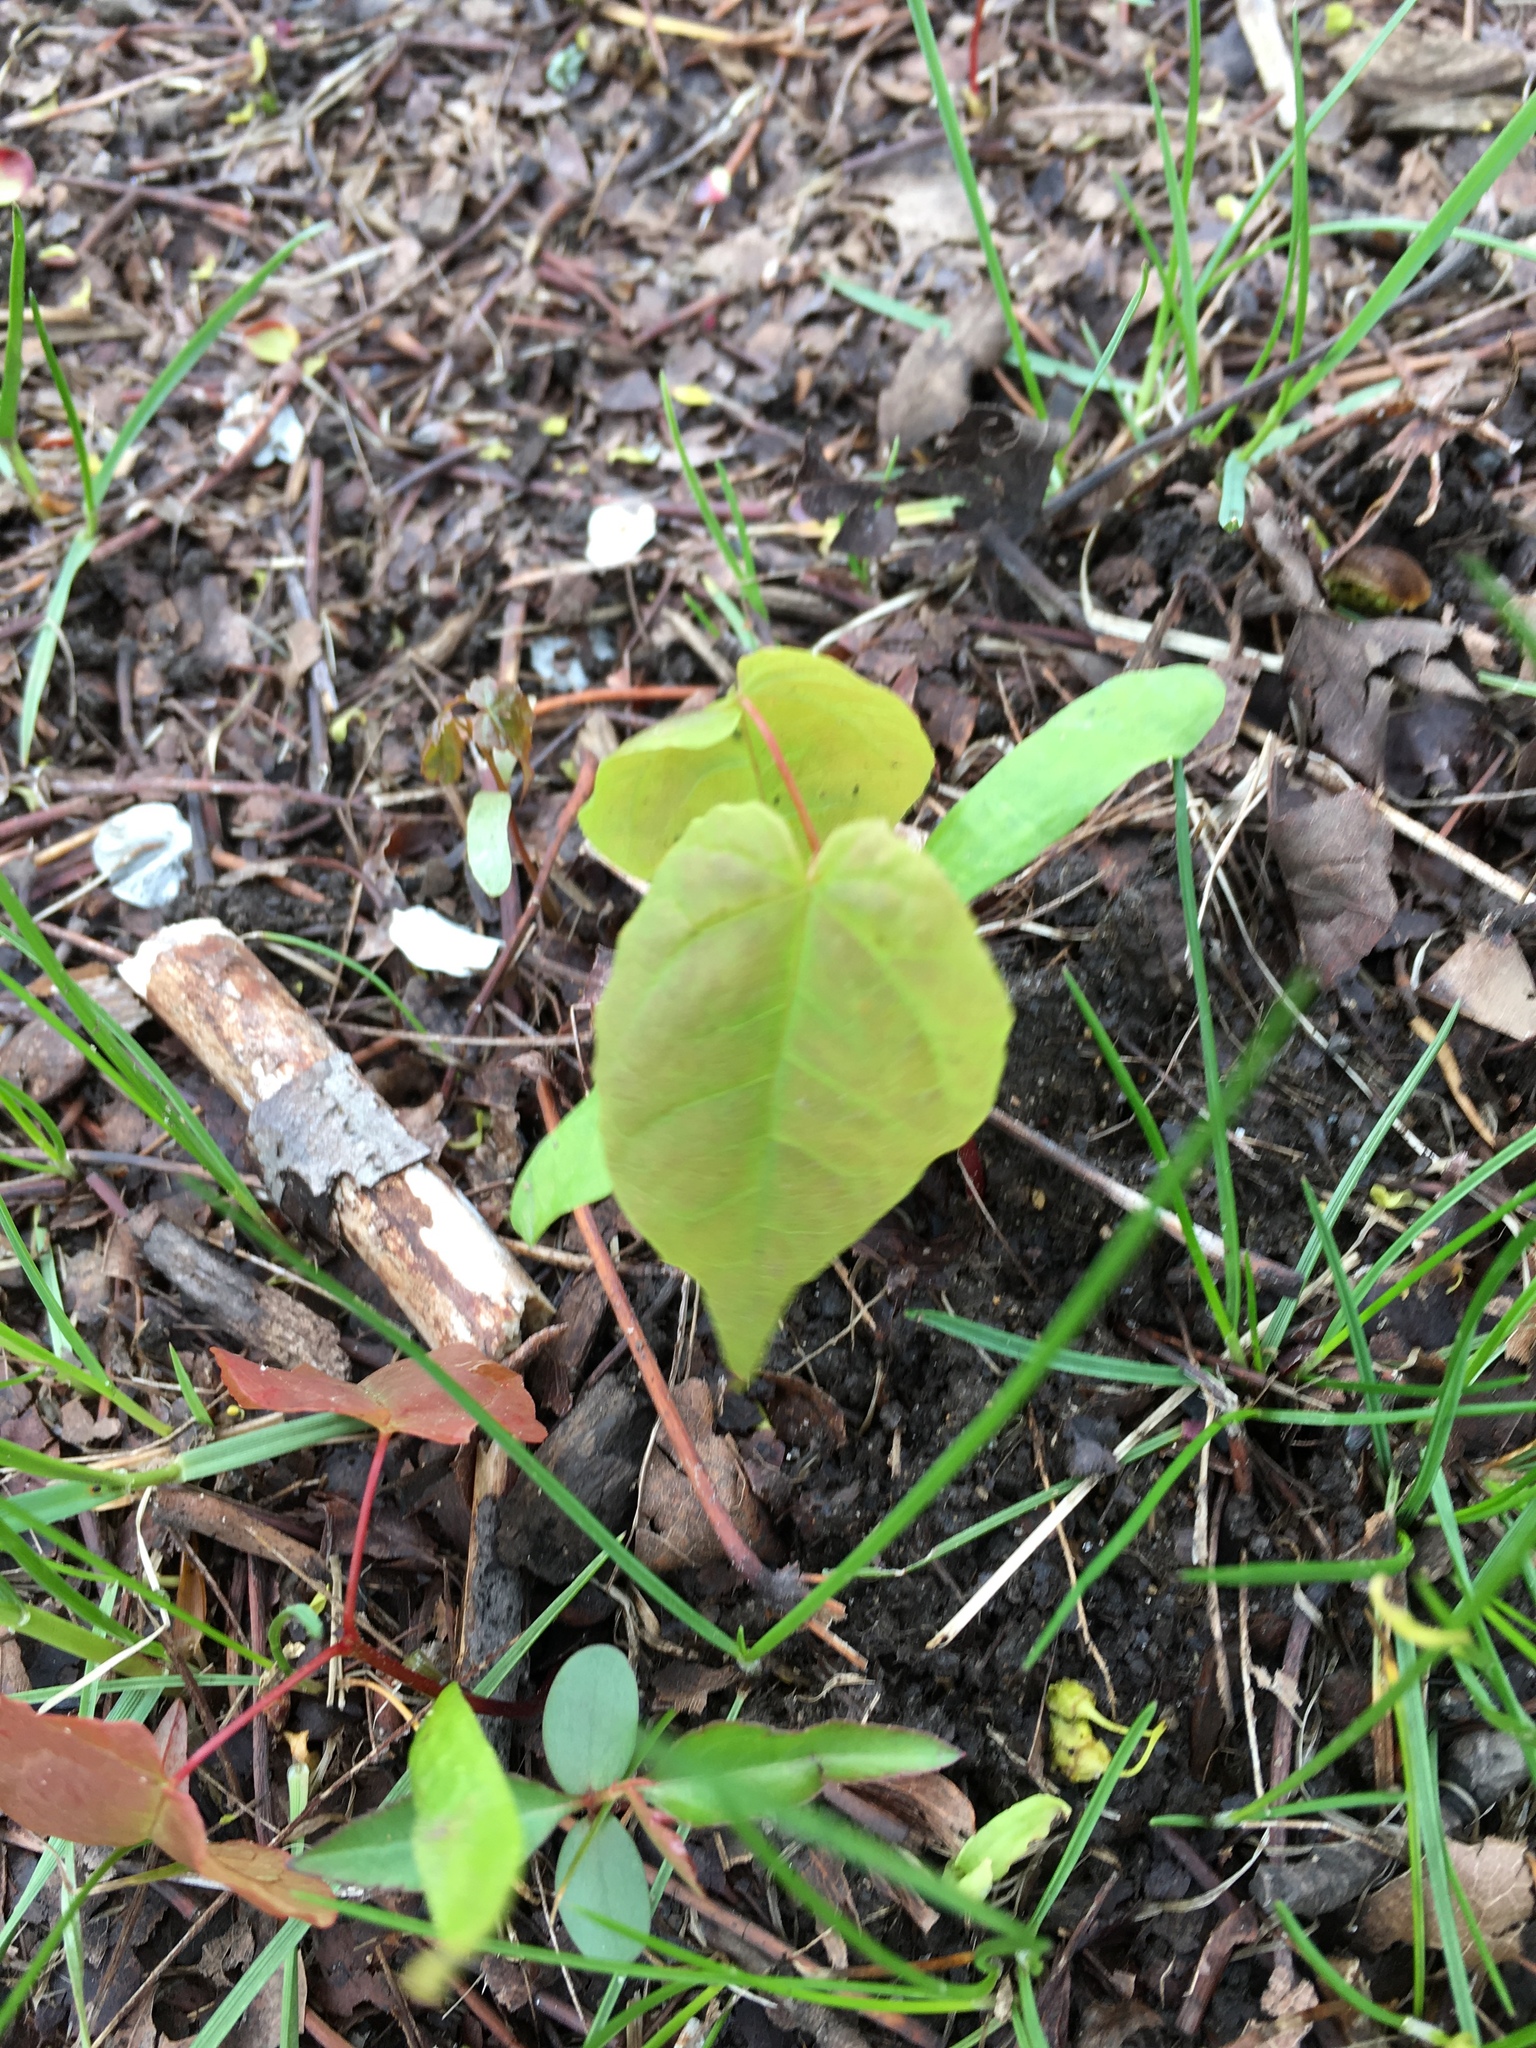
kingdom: Plantae
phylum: Tracheophyta
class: Magnoliopsida
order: Sapindales
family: Sapindaceae
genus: Acer
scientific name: Acer negundo
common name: Ashleaf maple
